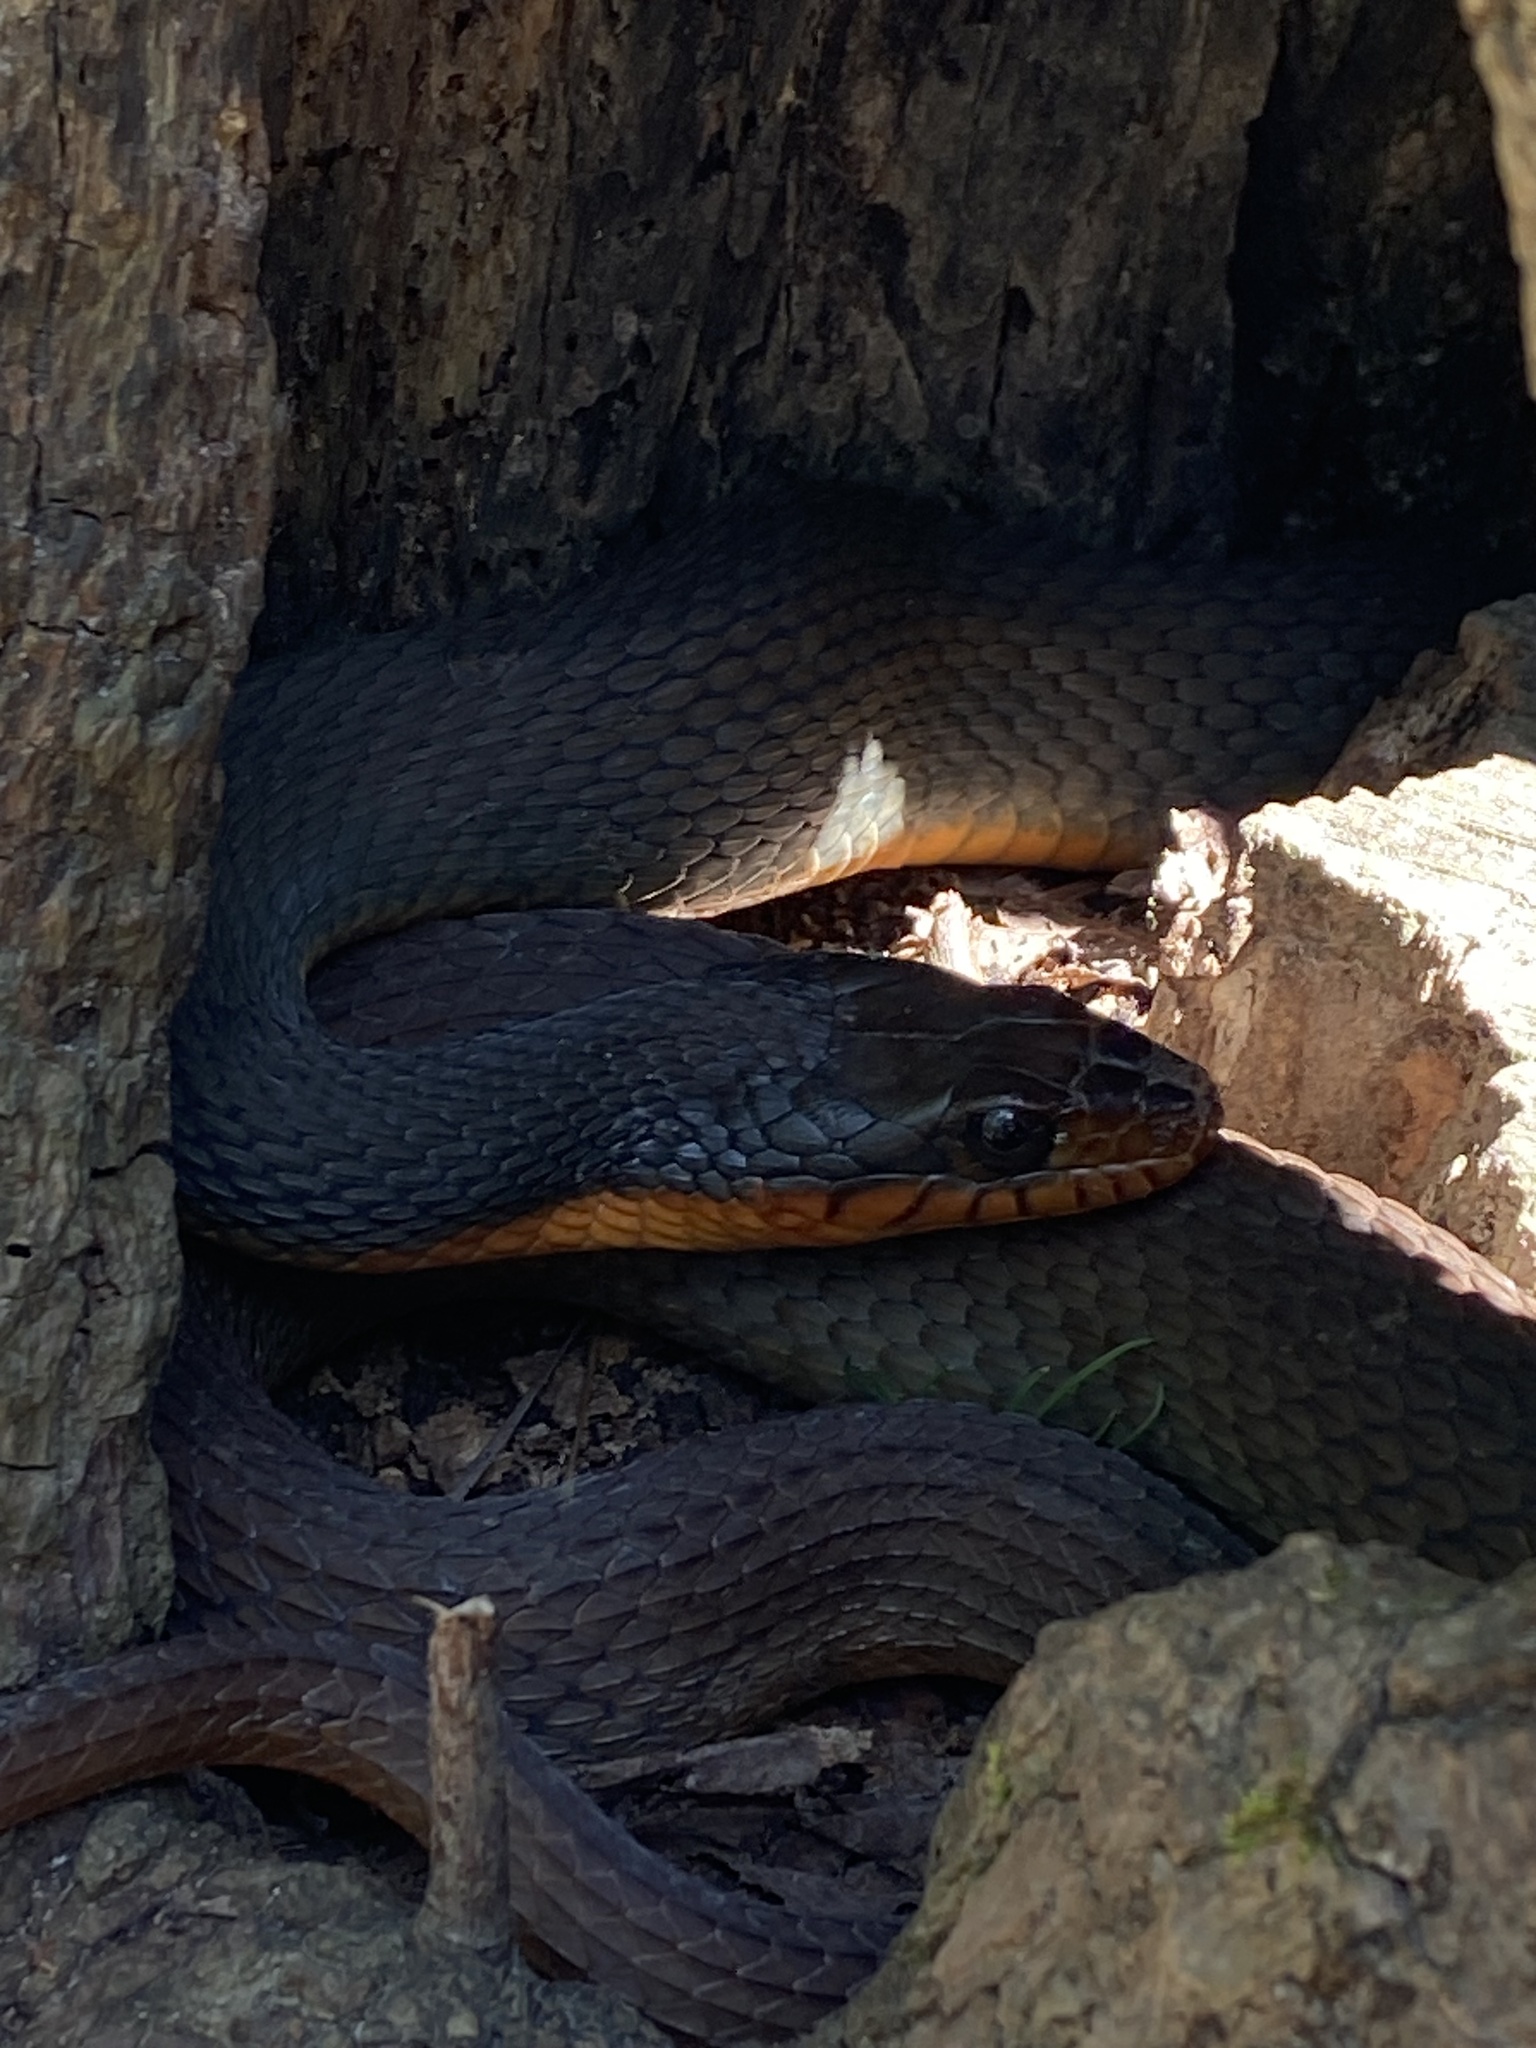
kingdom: Animalia
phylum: Chordata
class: Squamata
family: Colubridae
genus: Nerodia
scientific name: Nerodia erythrogaster
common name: Plainbelly water snake
